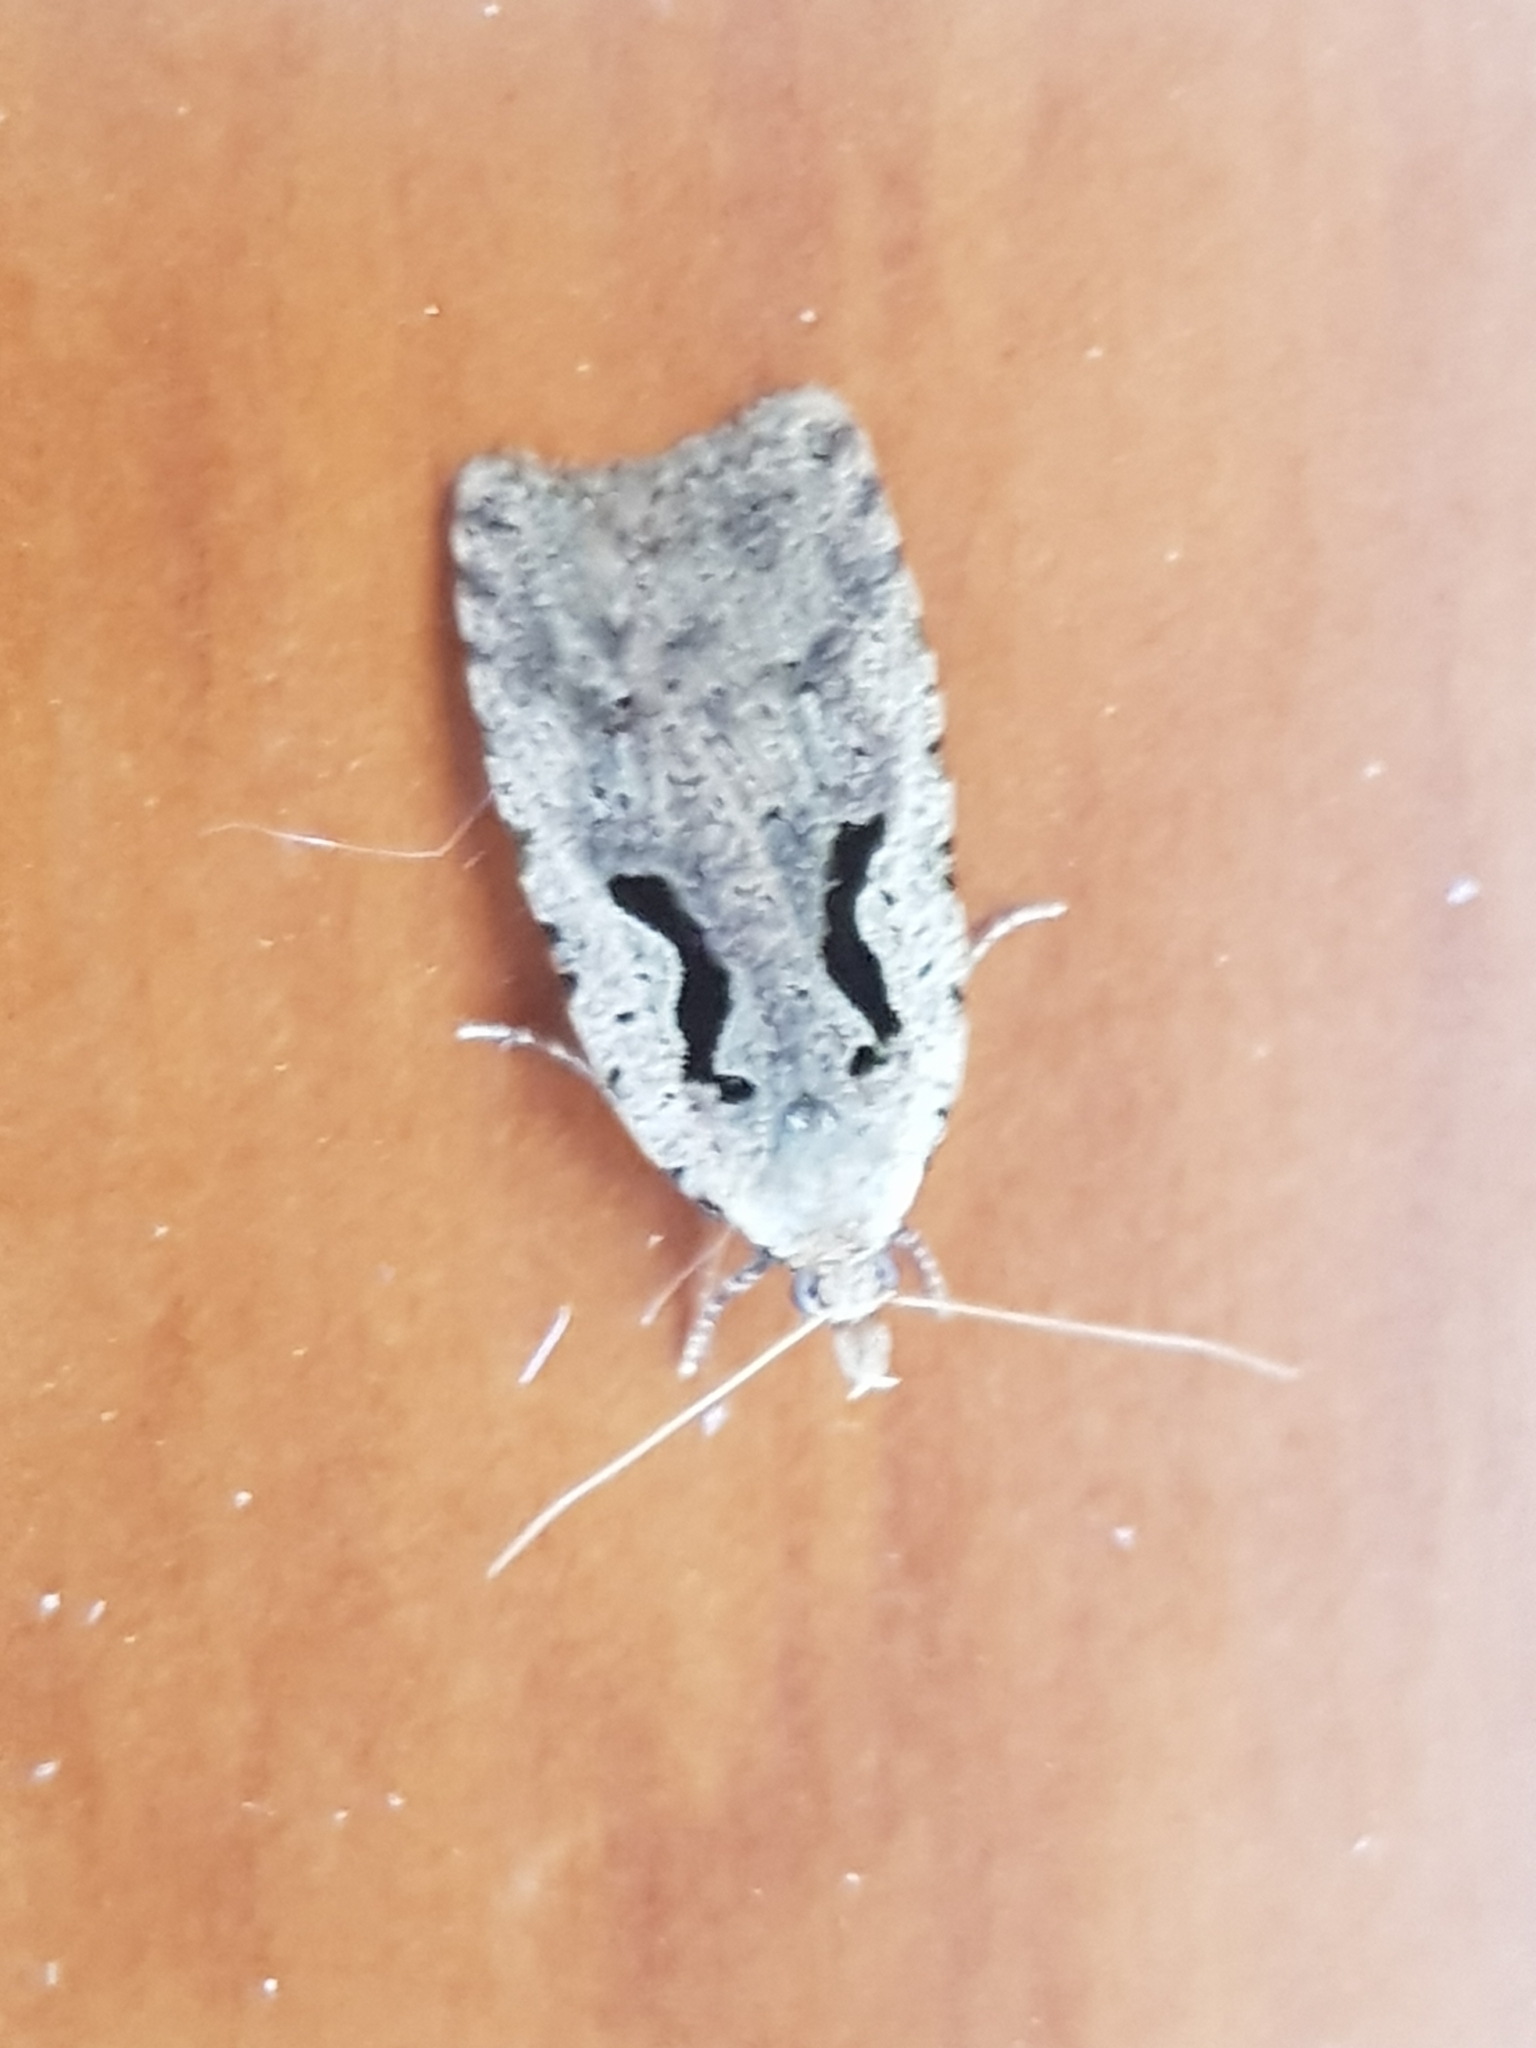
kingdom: Animalia
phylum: Arthropoda
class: Insecta
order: Lepidoptera
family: Tortricidae
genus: Cnephasia
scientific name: Cnephasia jactatana
